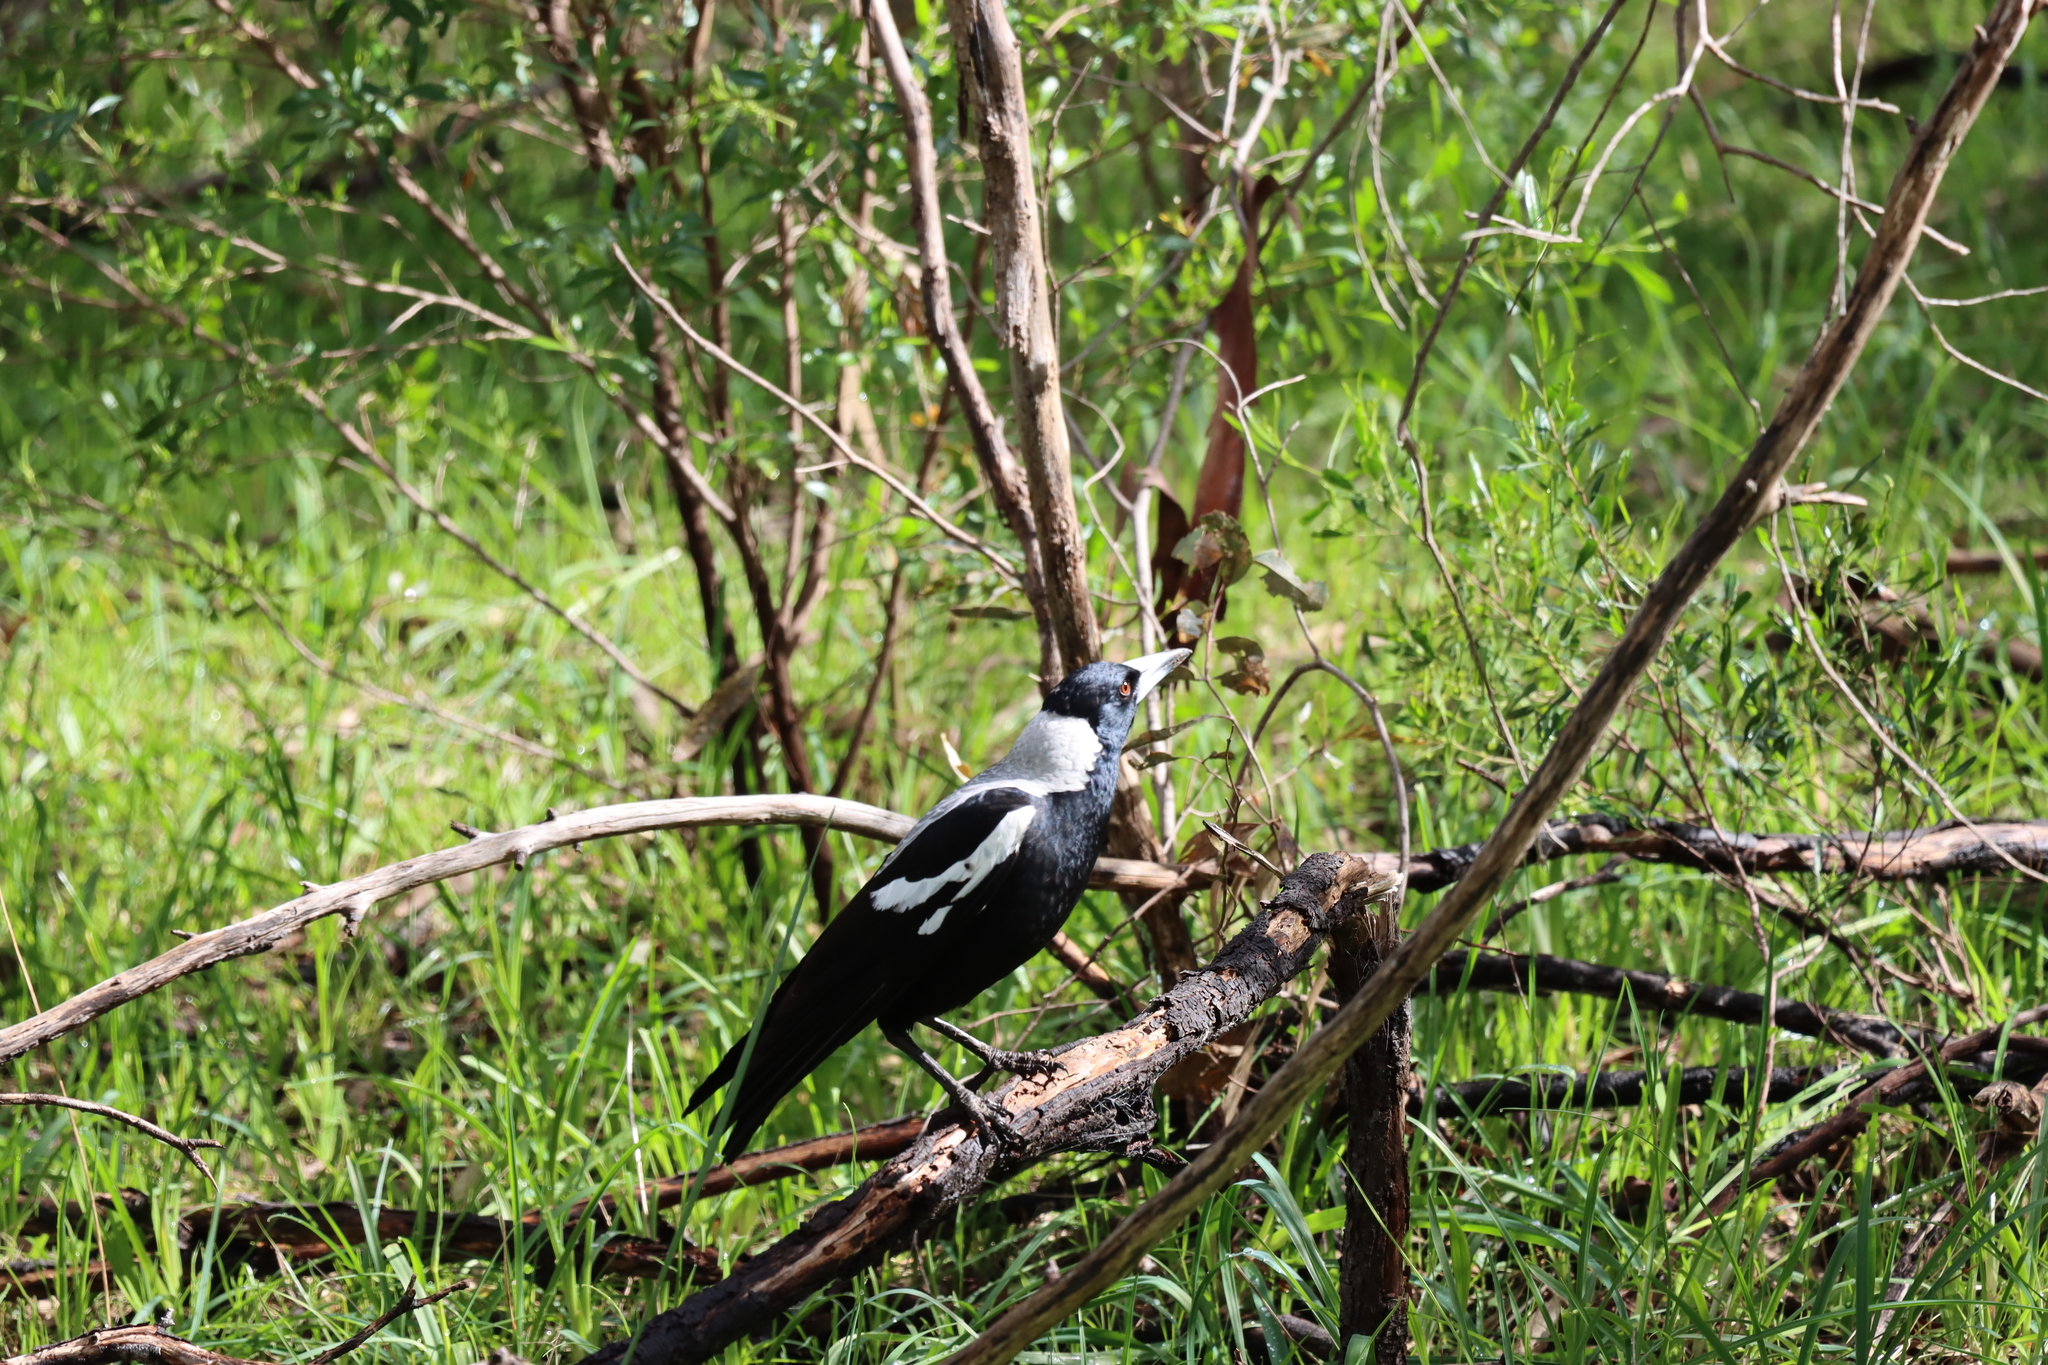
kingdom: Animalia
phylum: Chordata
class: Aves
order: Passeriformes
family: Cracticidae
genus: Gymnorhina
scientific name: Gymnorhina tibicen
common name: Australian magpie
